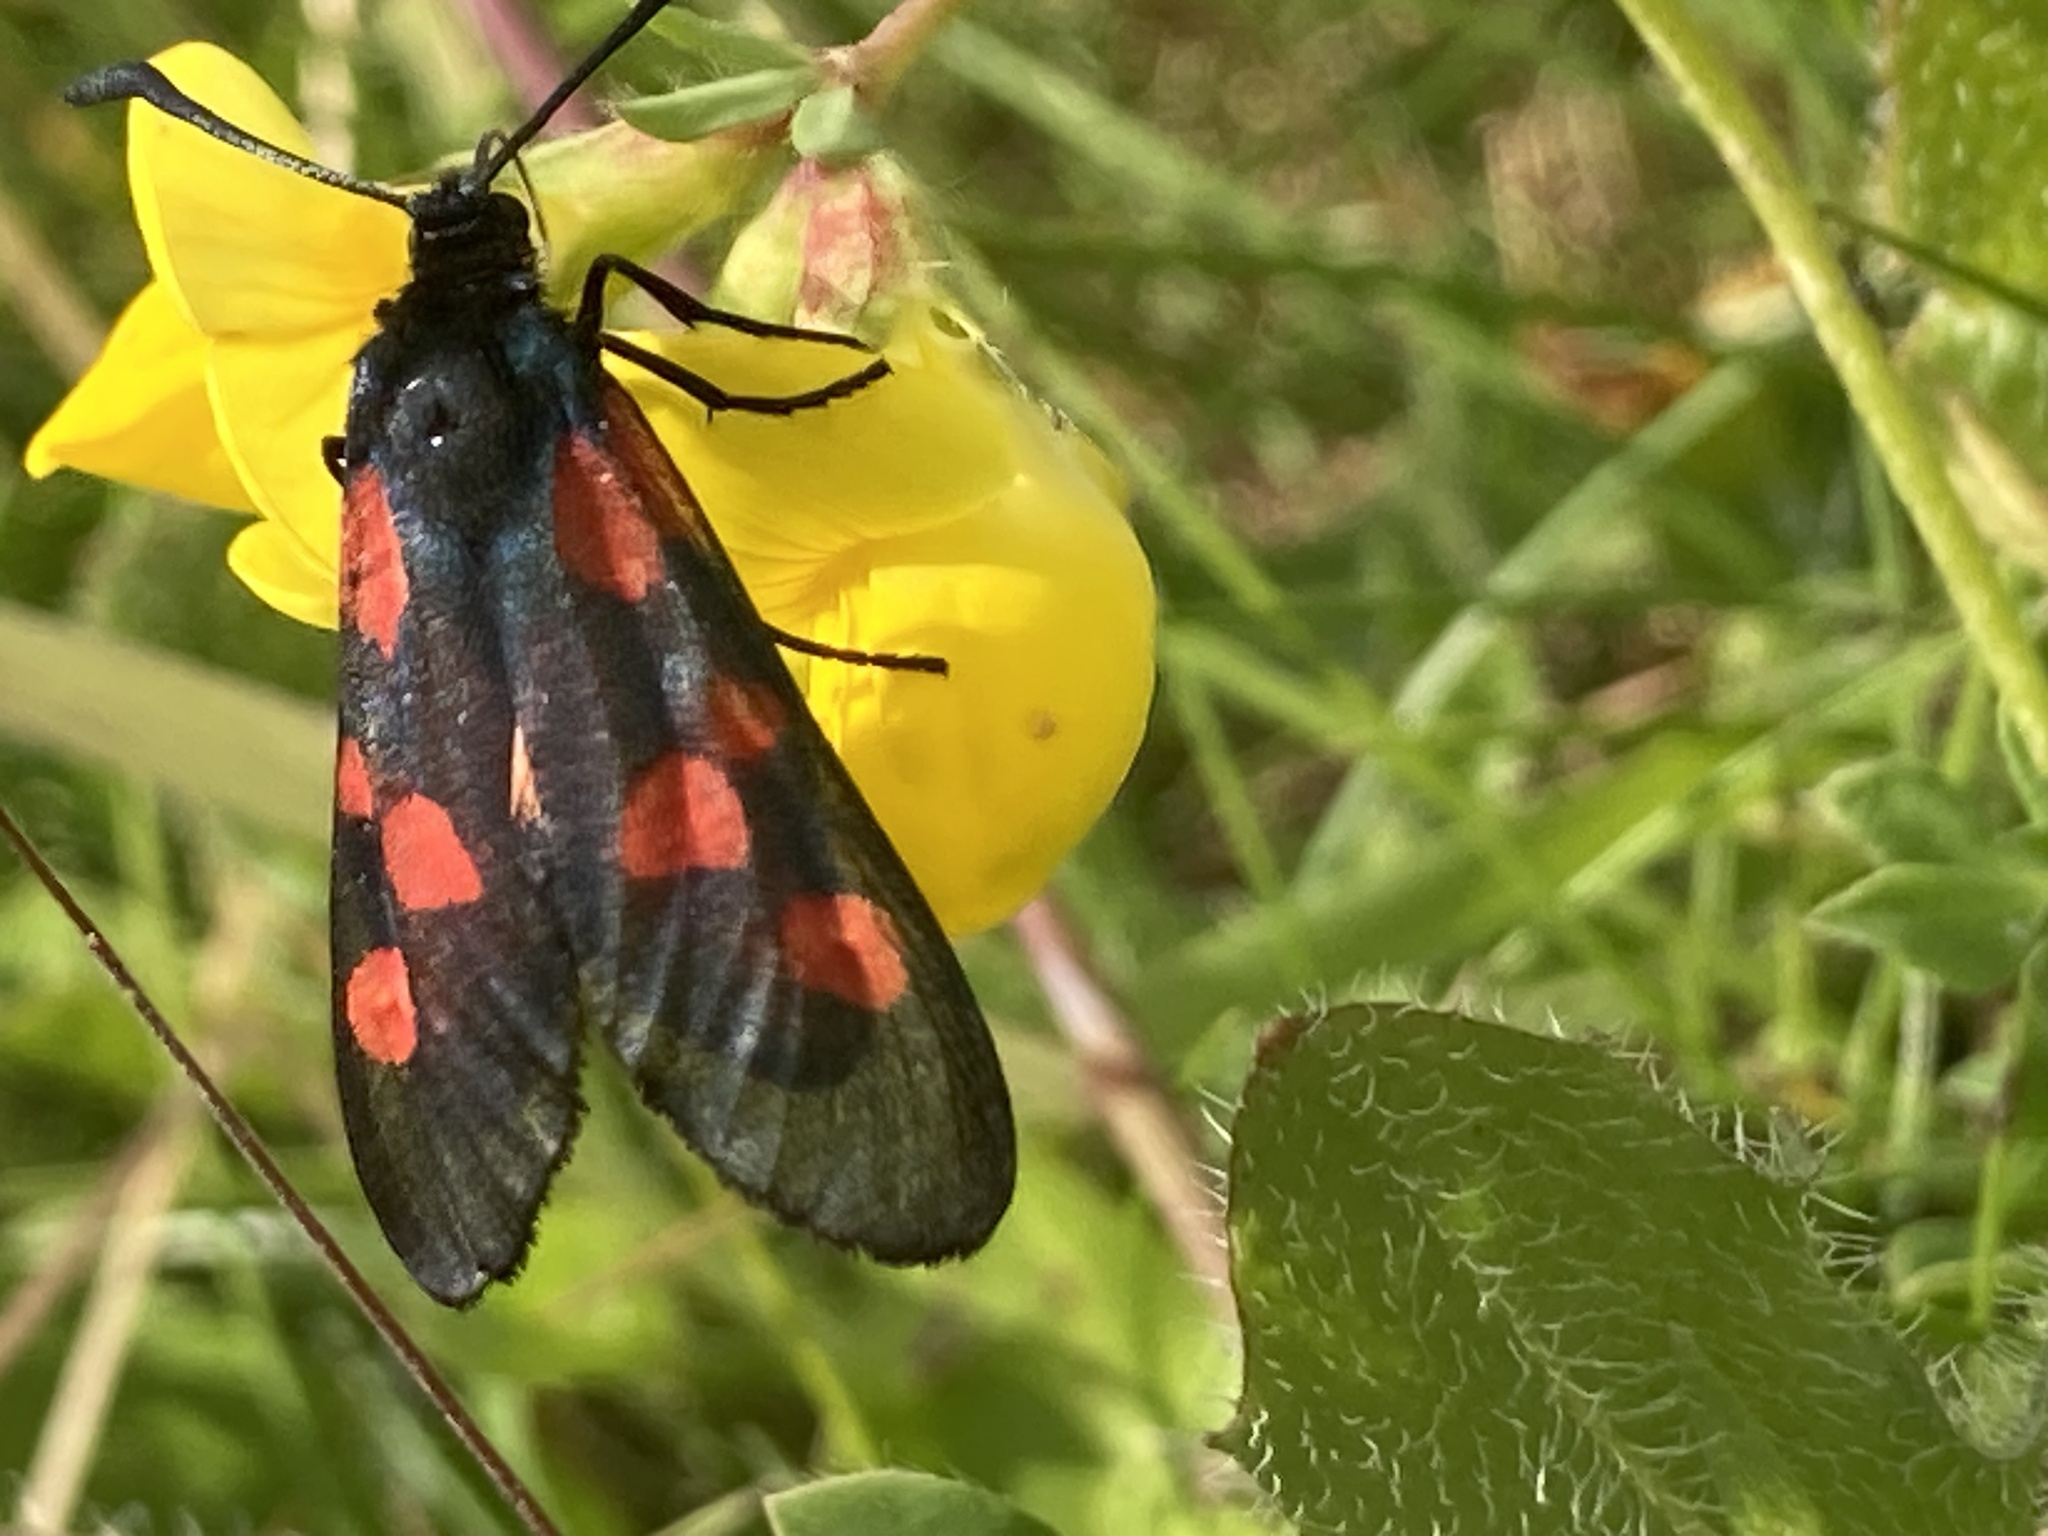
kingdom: Animalia
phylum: Arthropoda
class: Insecta
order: Lepidoptera
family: Zygaenidae
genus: Zygaena
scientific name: Zygaena lonicerae
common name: Narrow-bordered five-spot burnet
